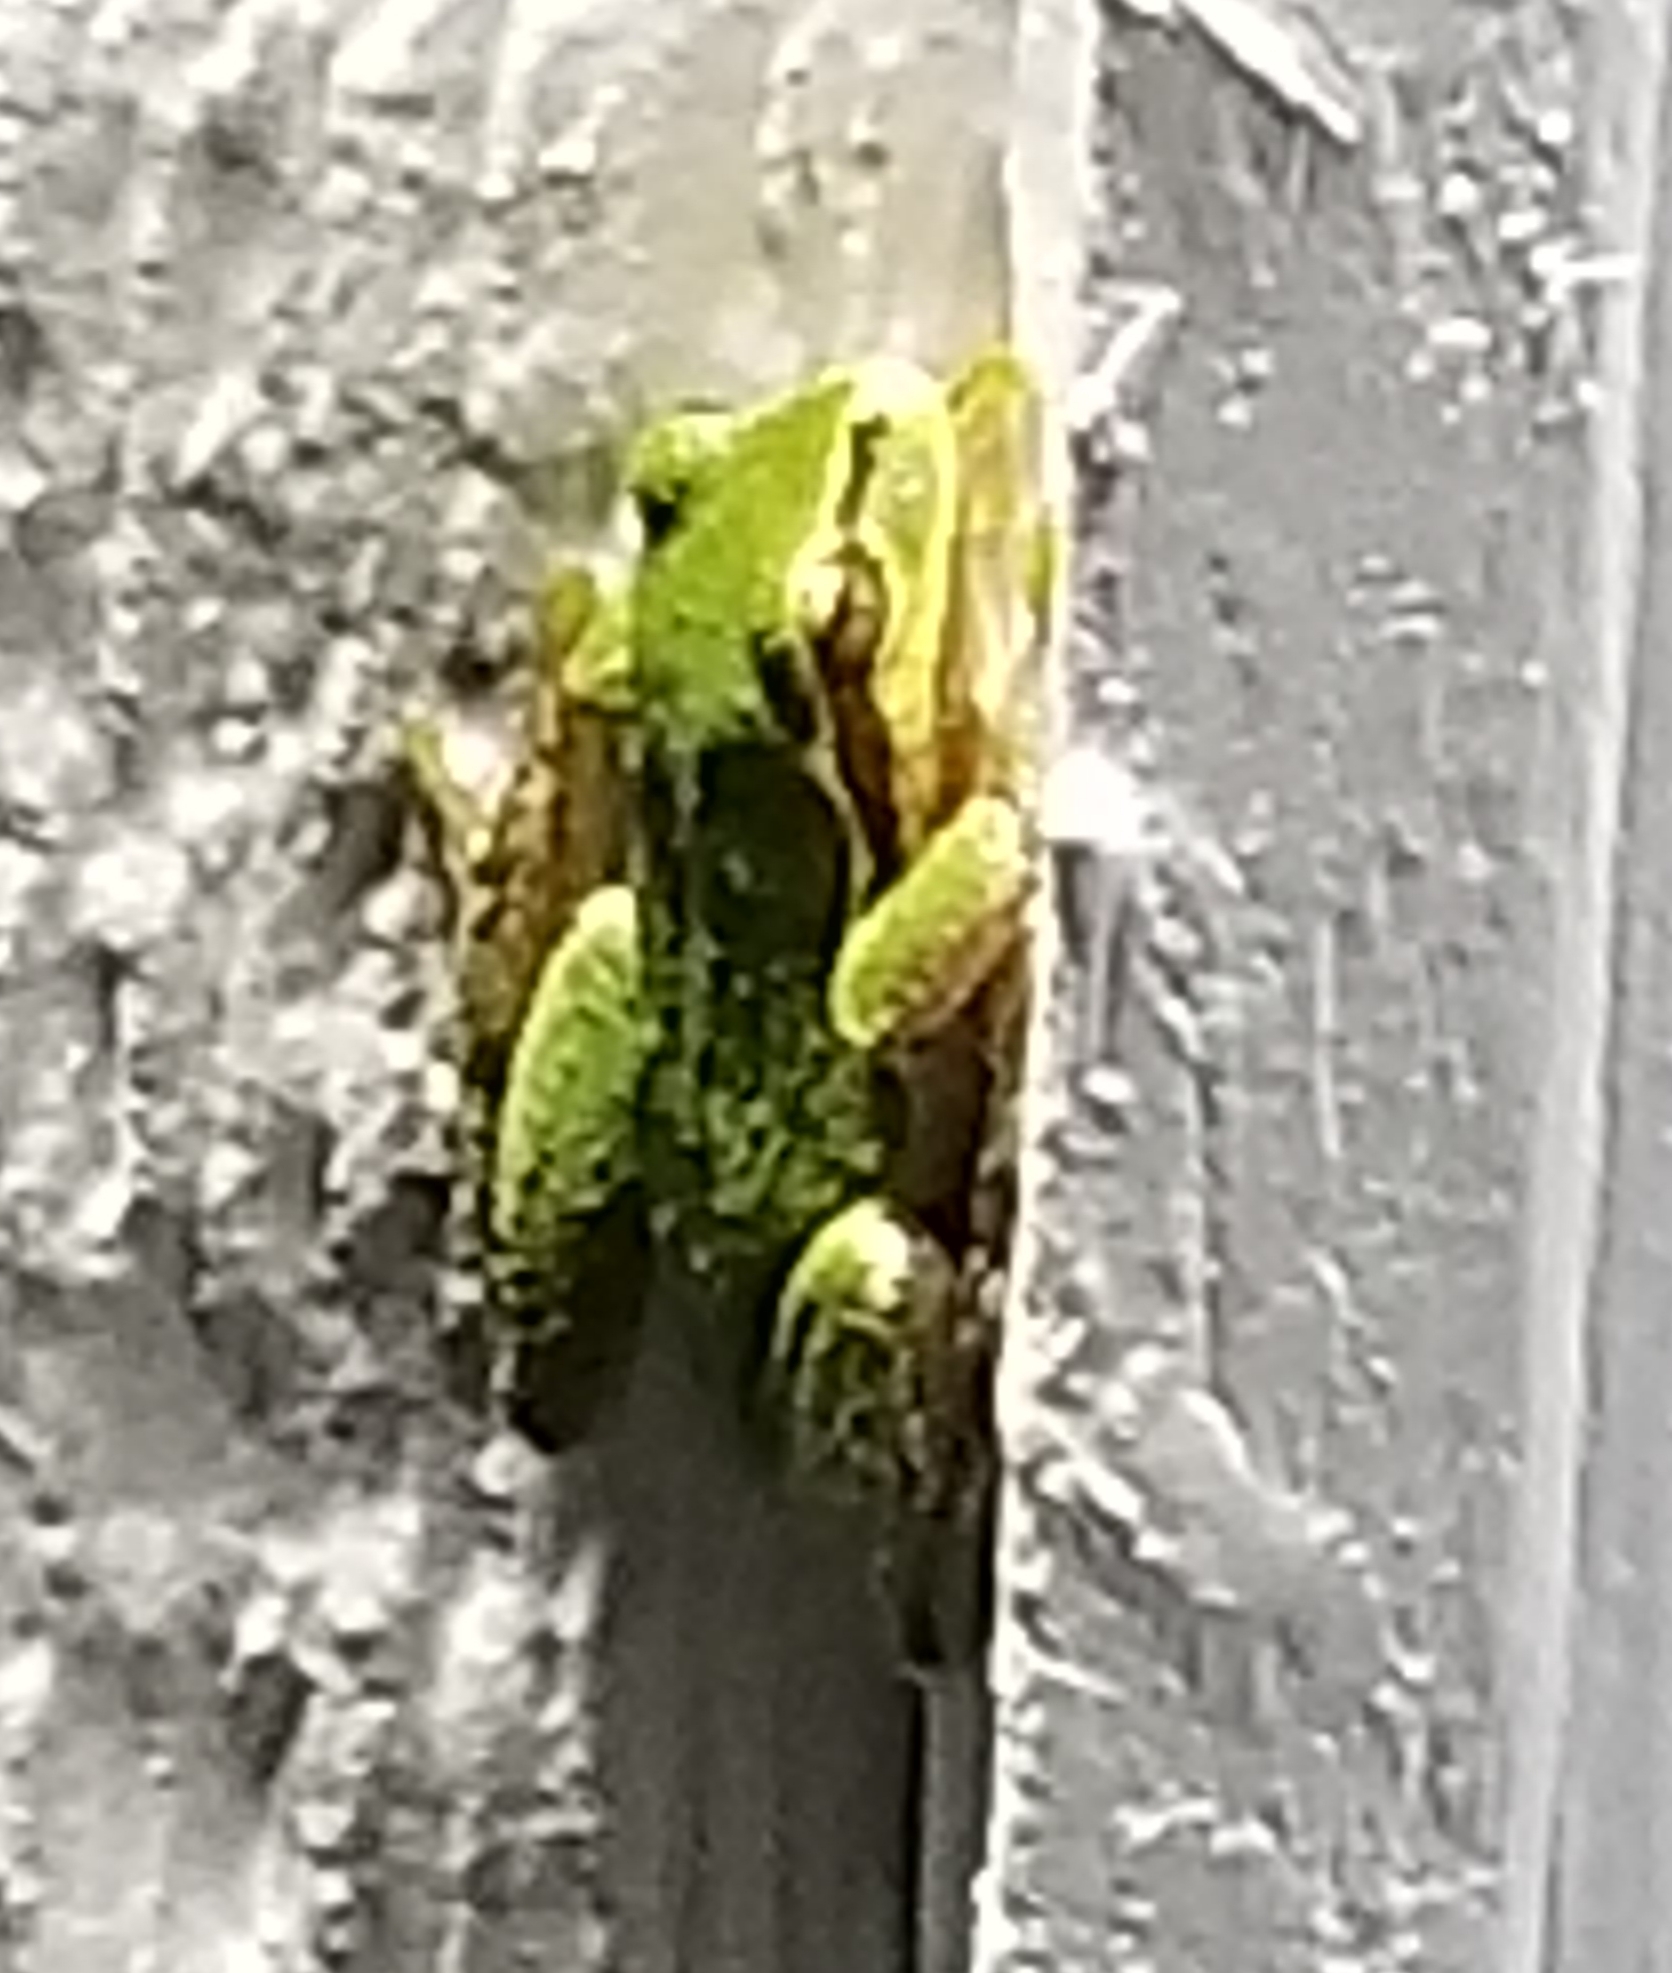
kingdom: Animalia
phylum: Chordata
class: Amphibia
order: Anura
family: Hylidae
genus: Pseudacris
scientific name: Pseudacris regilla
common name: Pacific chorus frog
